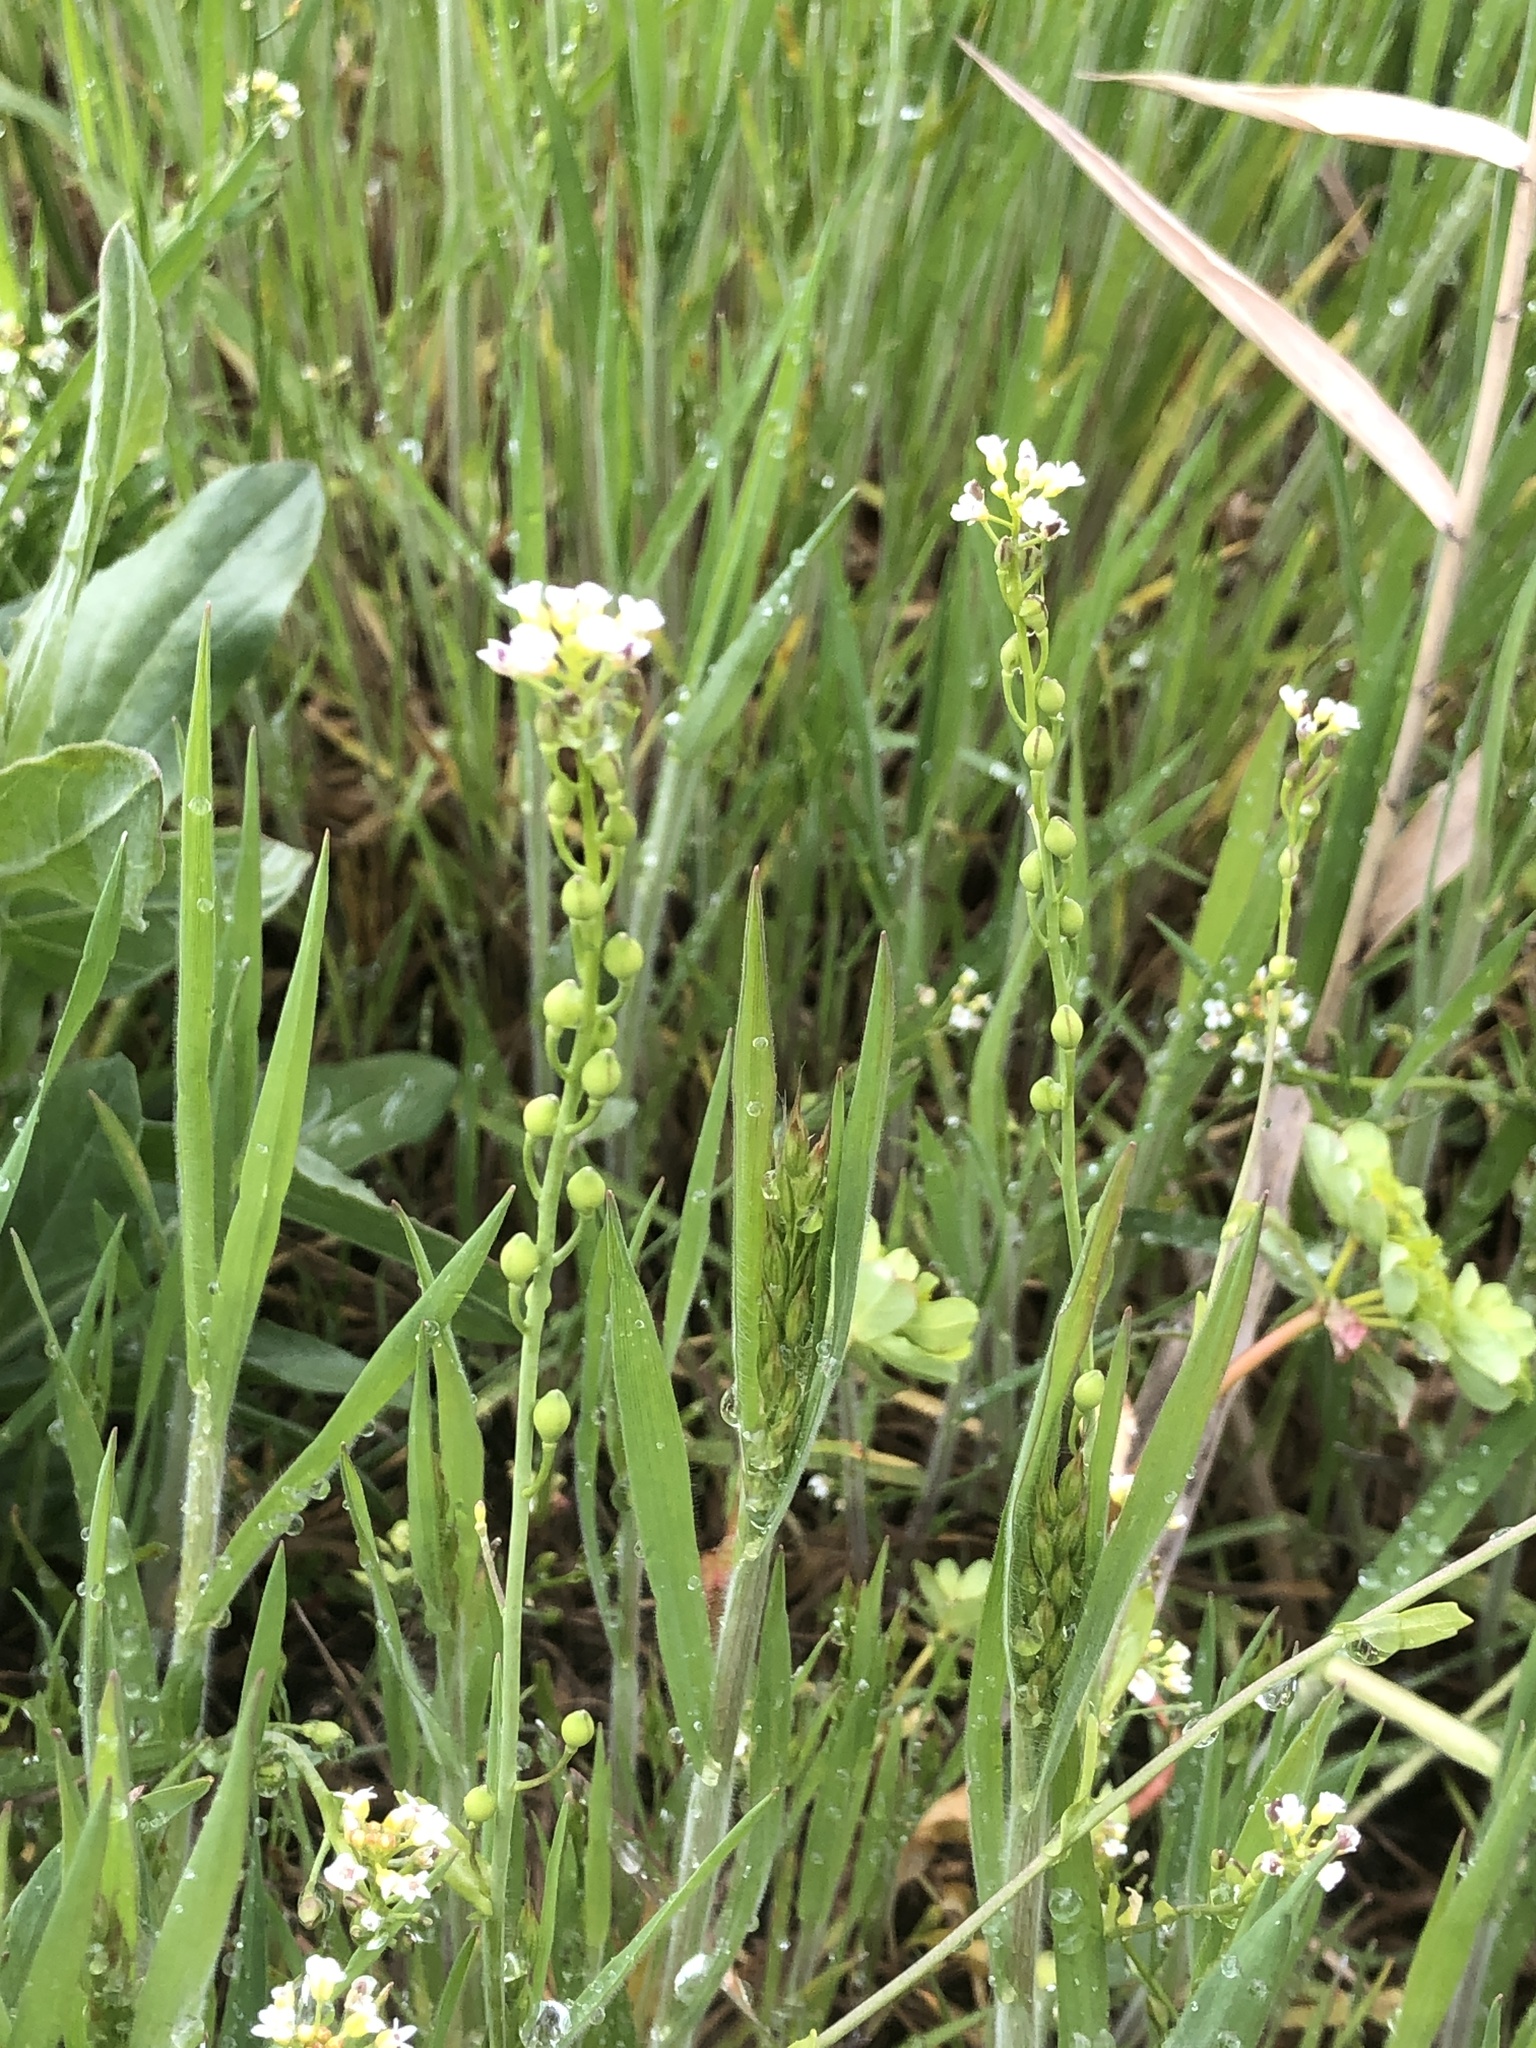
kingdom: Plantae
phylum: Tracheophyta
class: Magnoliopsida
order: Brassicales
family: Brassicaceae
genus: Calepina
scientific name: Calepina irregularis
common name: White ballmustard
